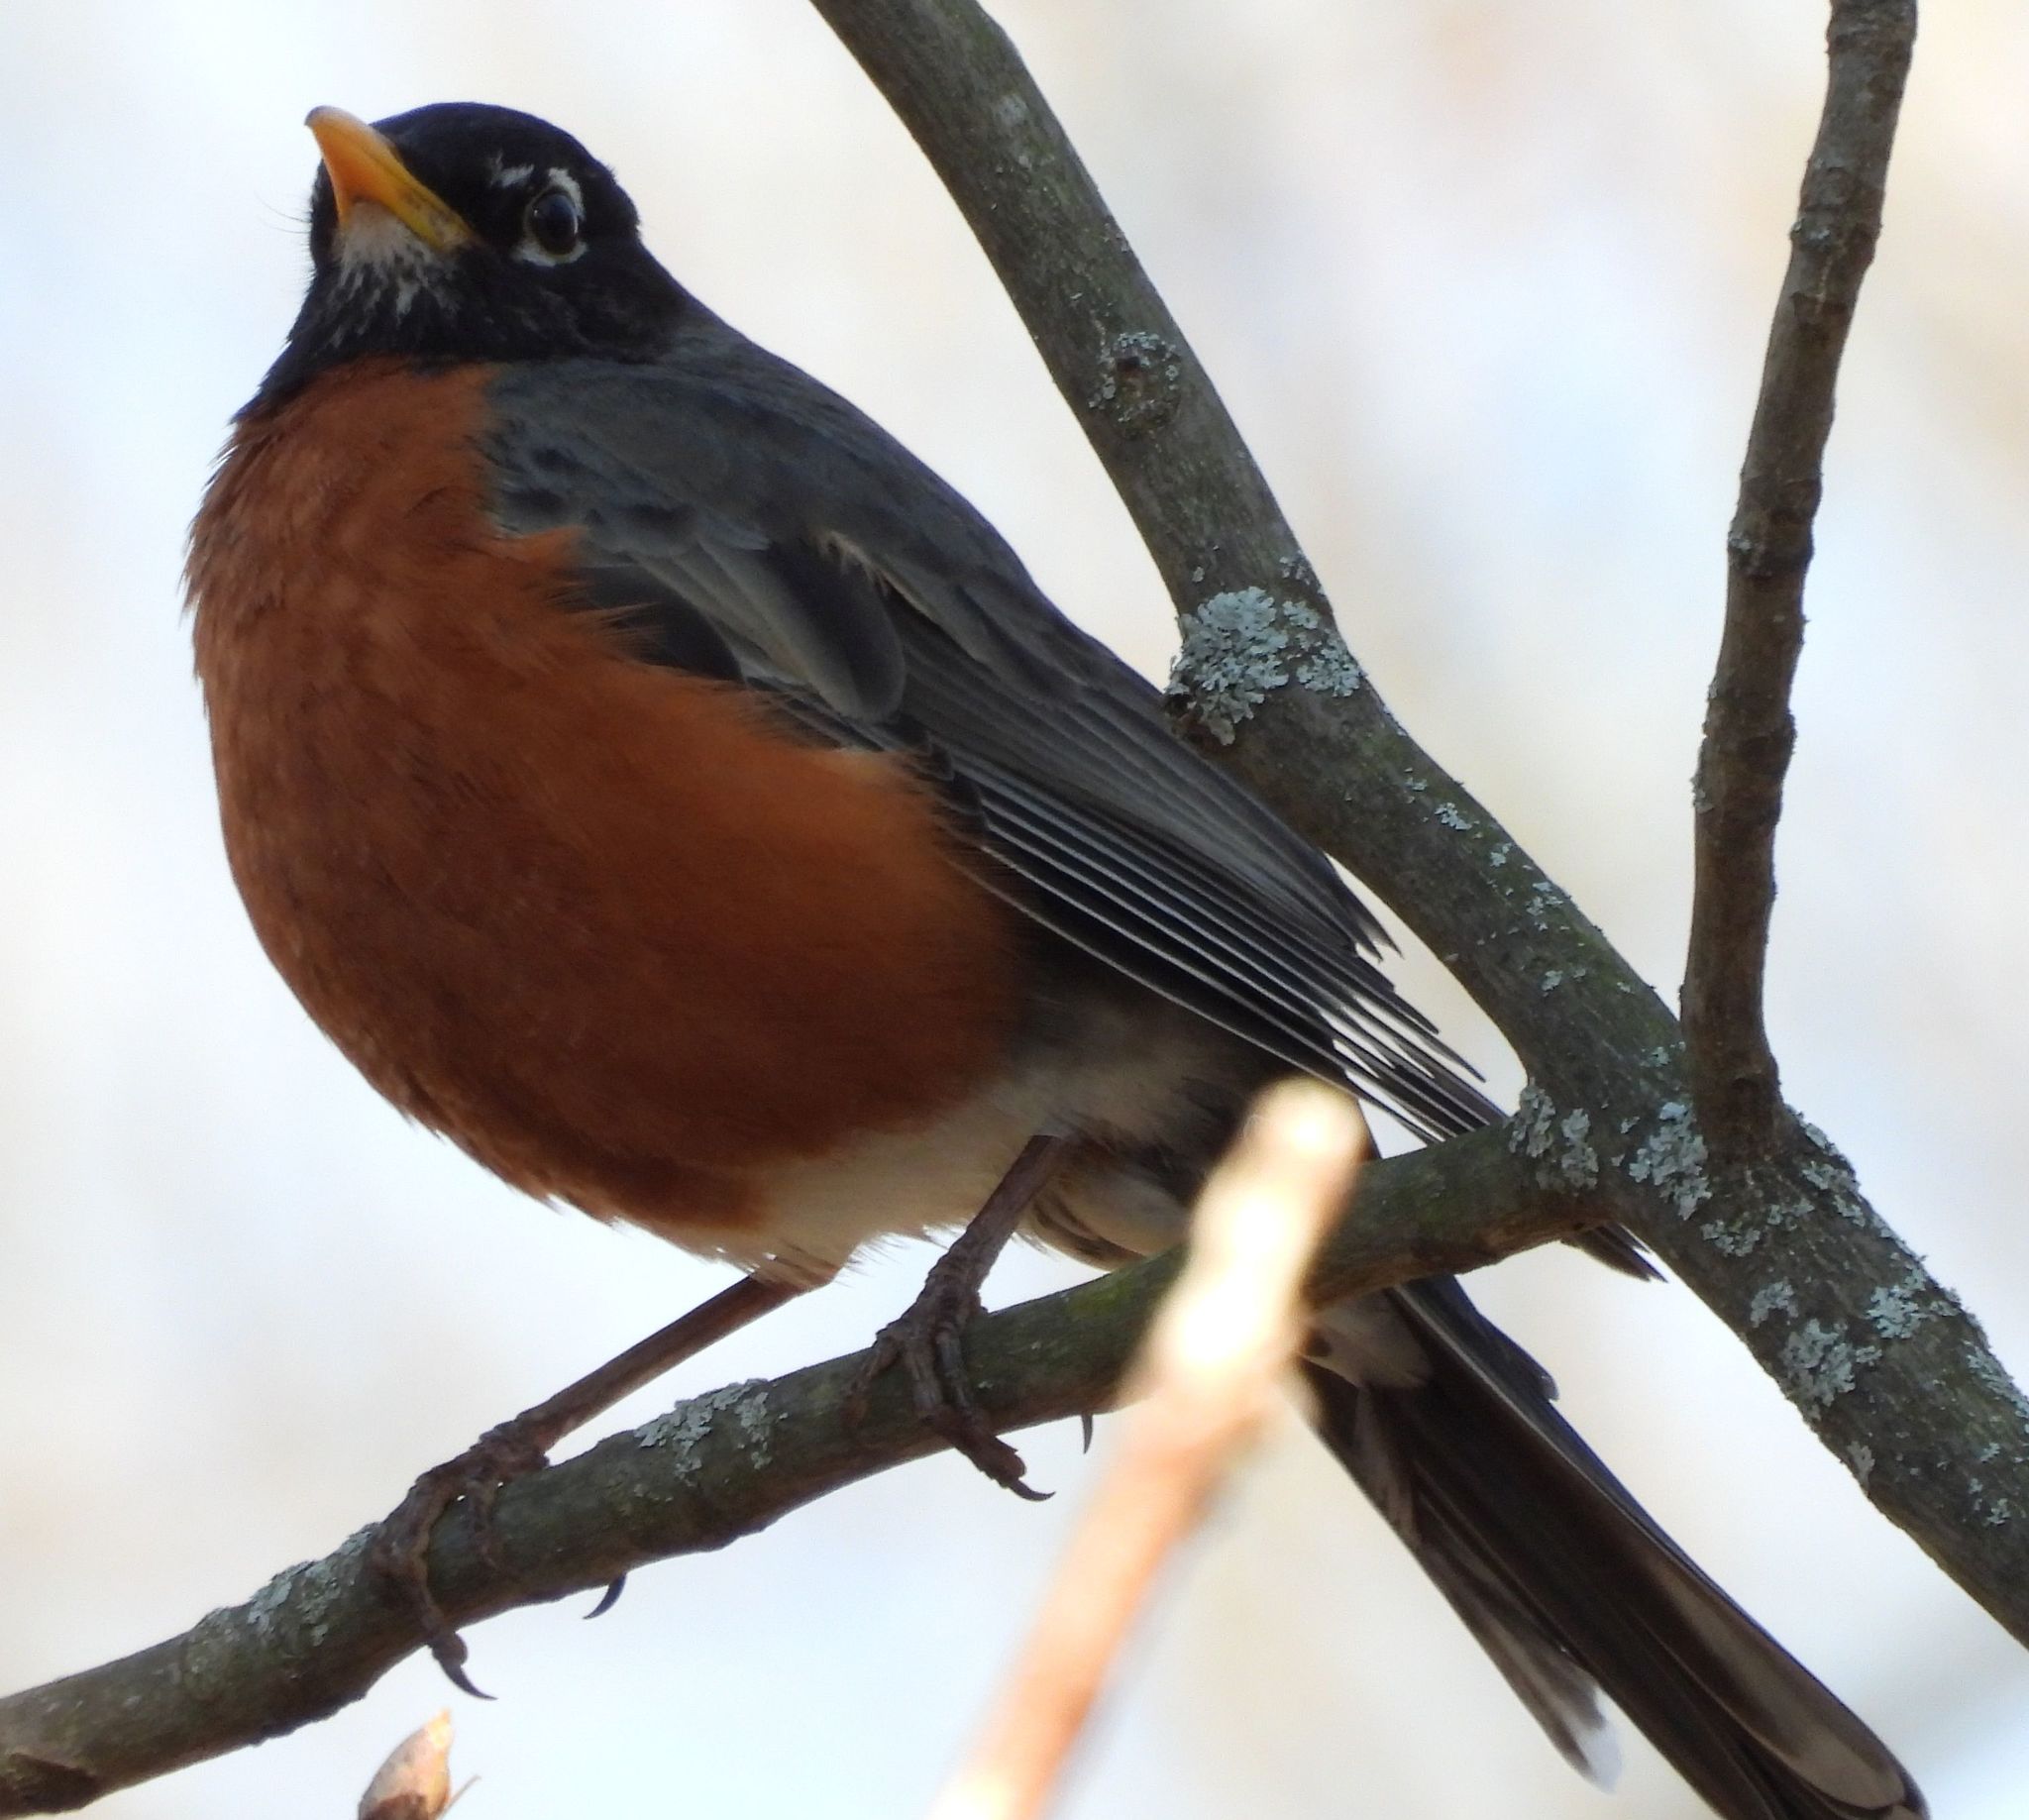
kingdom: Animalia
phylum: Chordata
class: Aves
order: Passeriformes
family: Turdidae
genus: Turdus
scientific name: Turdus migratorius
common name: American robin
